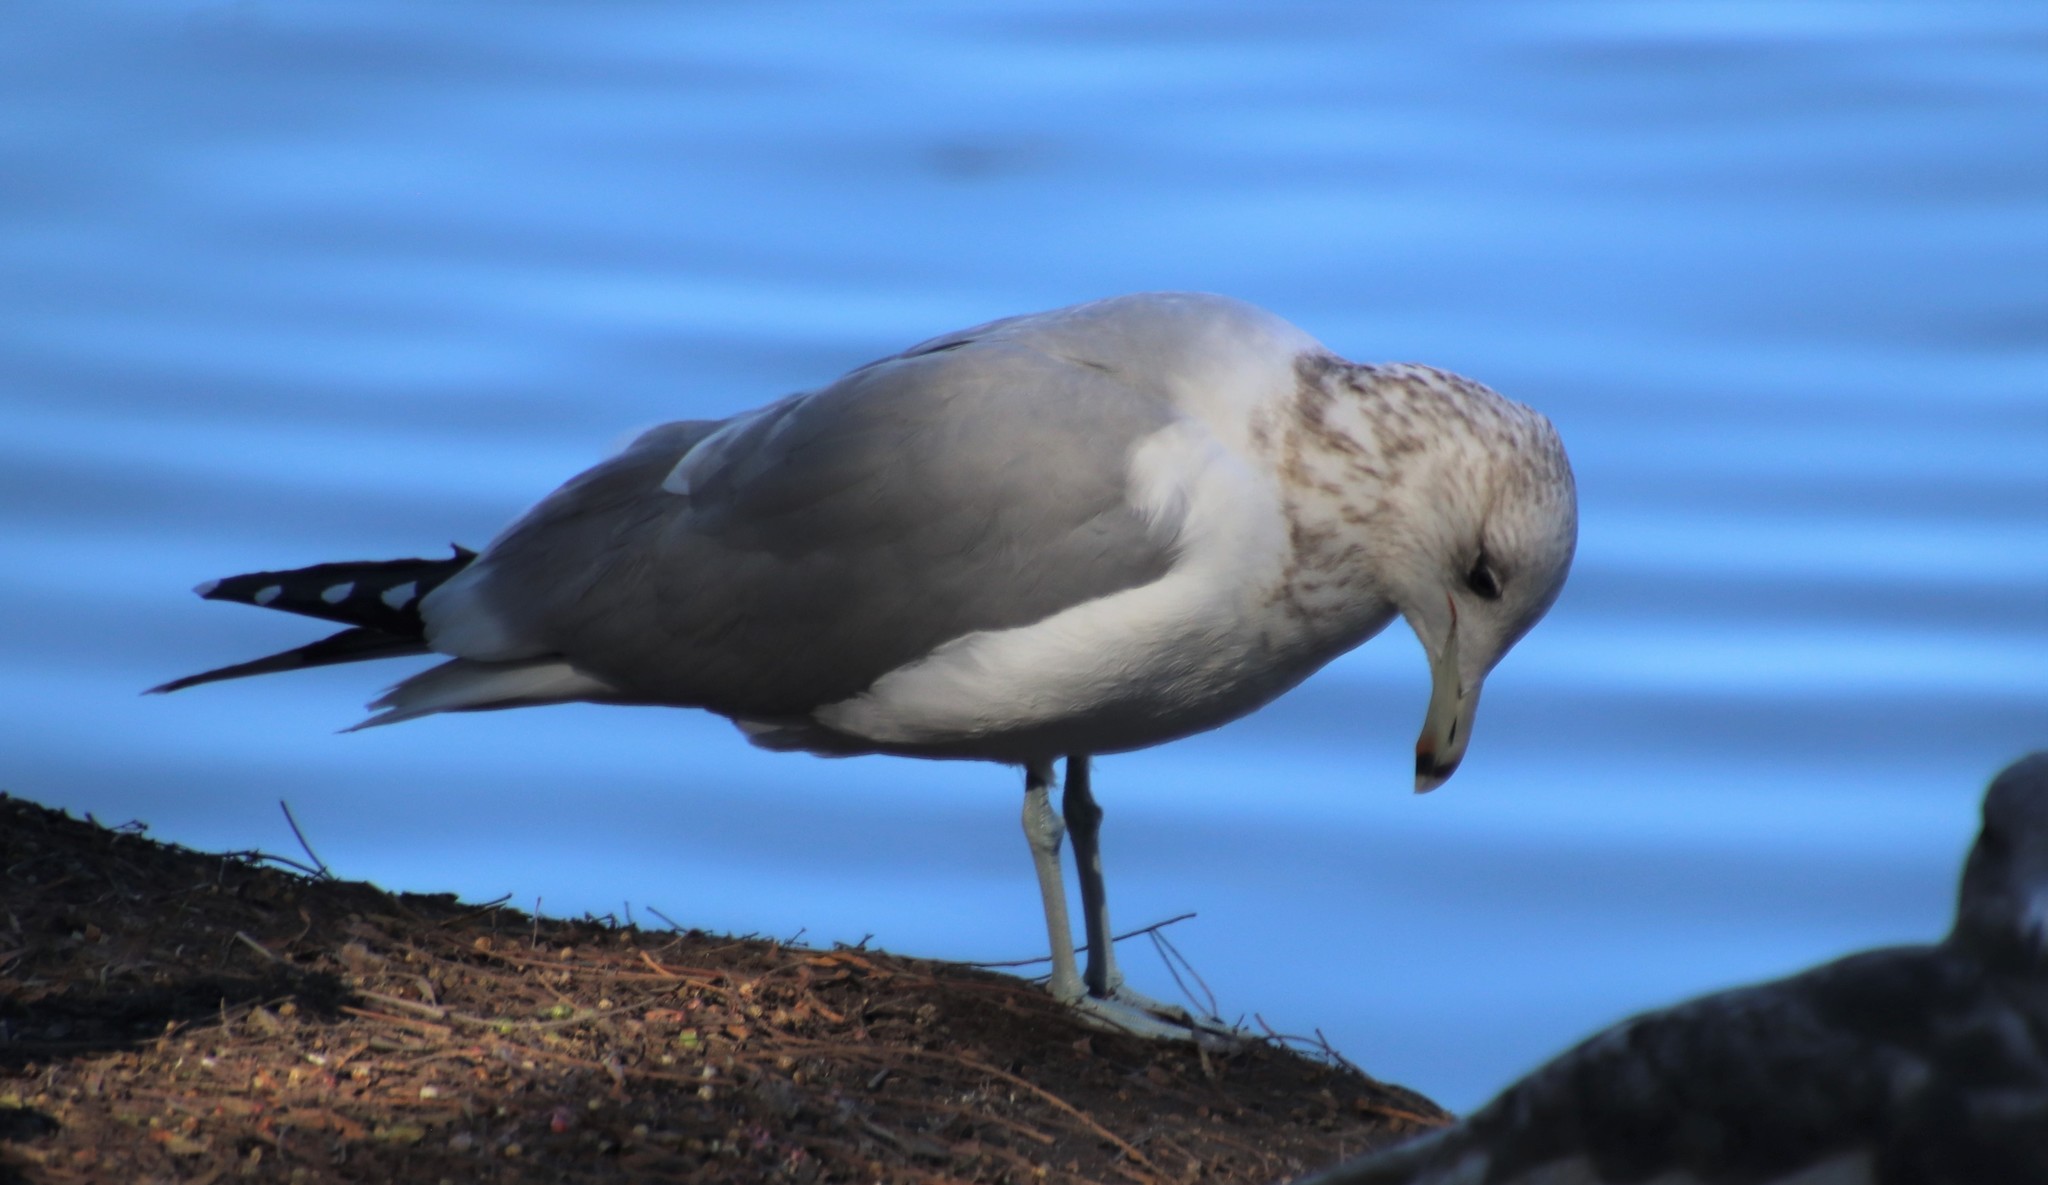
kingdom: Animalia
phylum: Chordata
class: Aves
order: Charadriiformes
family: Laridae
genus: Larus
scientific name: Larus californicus
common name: California gull
